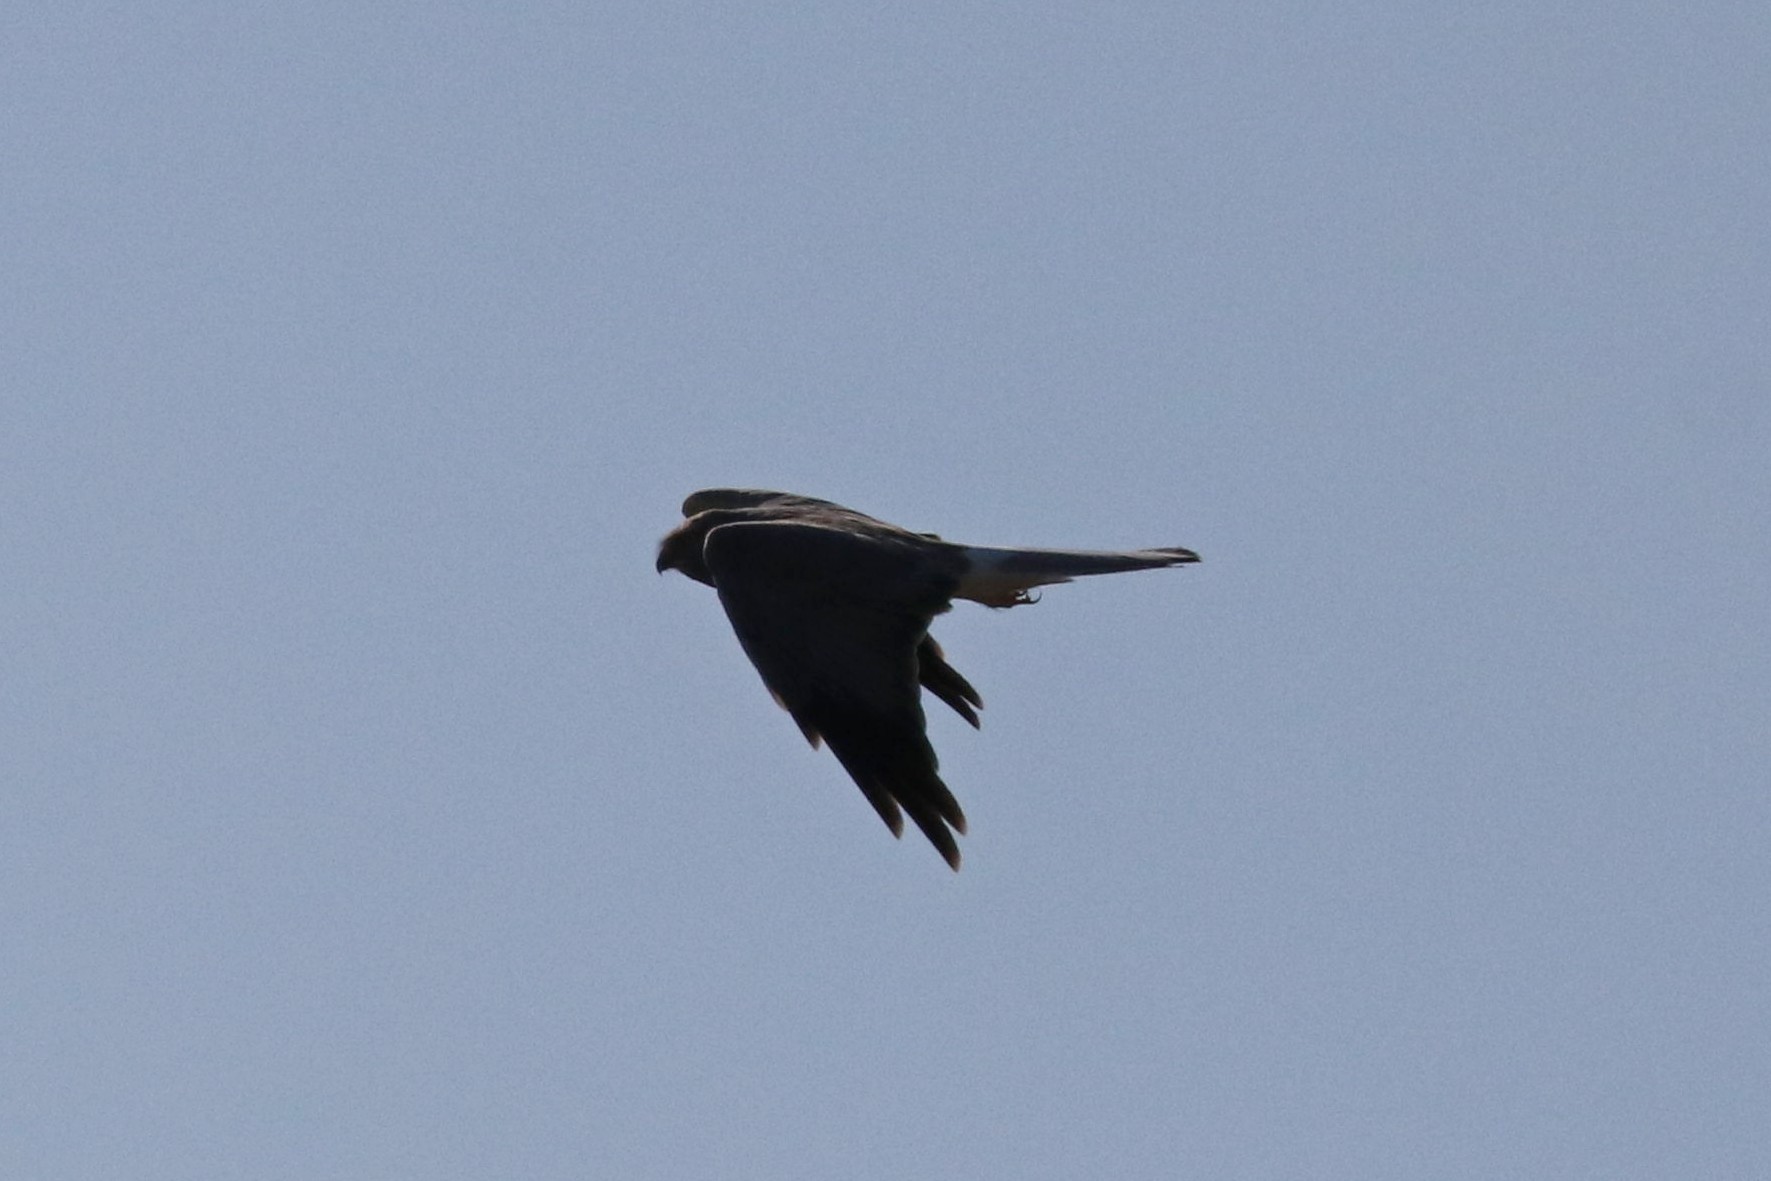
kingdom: Animalia
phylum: Chordata
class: Aves
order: Accipitriformes
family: Accipitridae
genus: Circus
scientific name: Circus cyaneus
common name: Hen harrier
